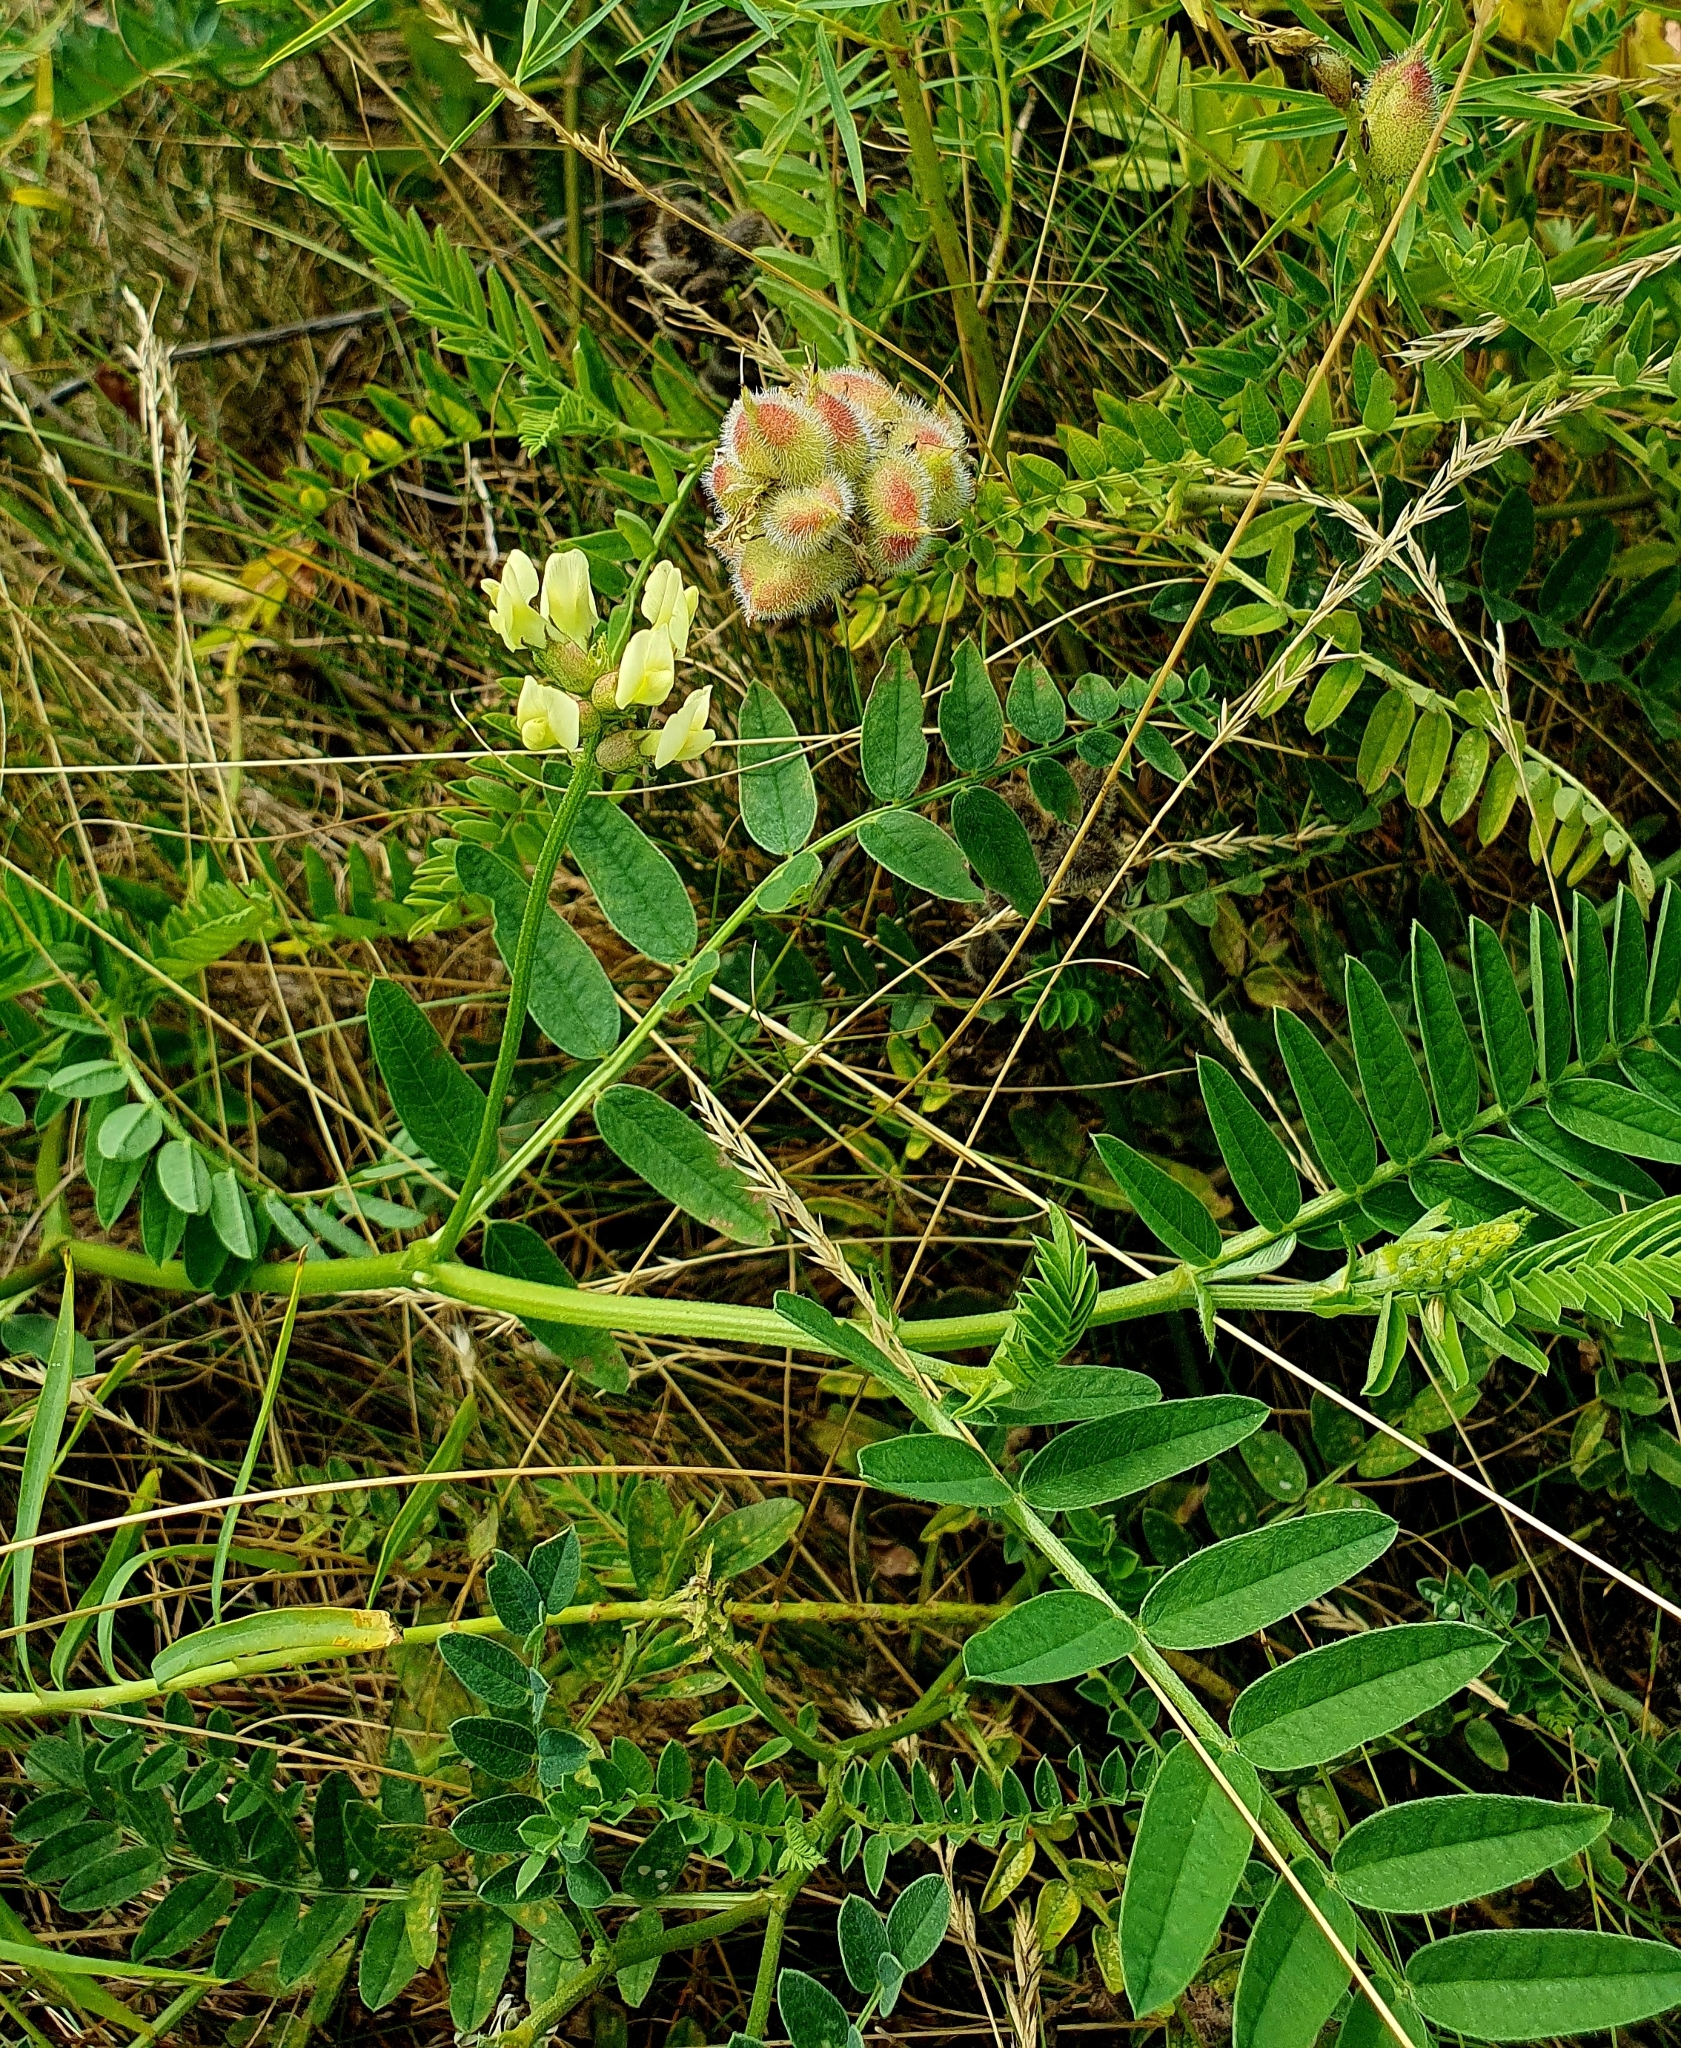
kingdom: Plantae
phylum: Tracheophyta
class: Magnoliopsida
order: Fabales
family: Fabaceae
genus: Astragalus
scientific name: Astragalus cicer
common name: Chick-pea milk-vetch
